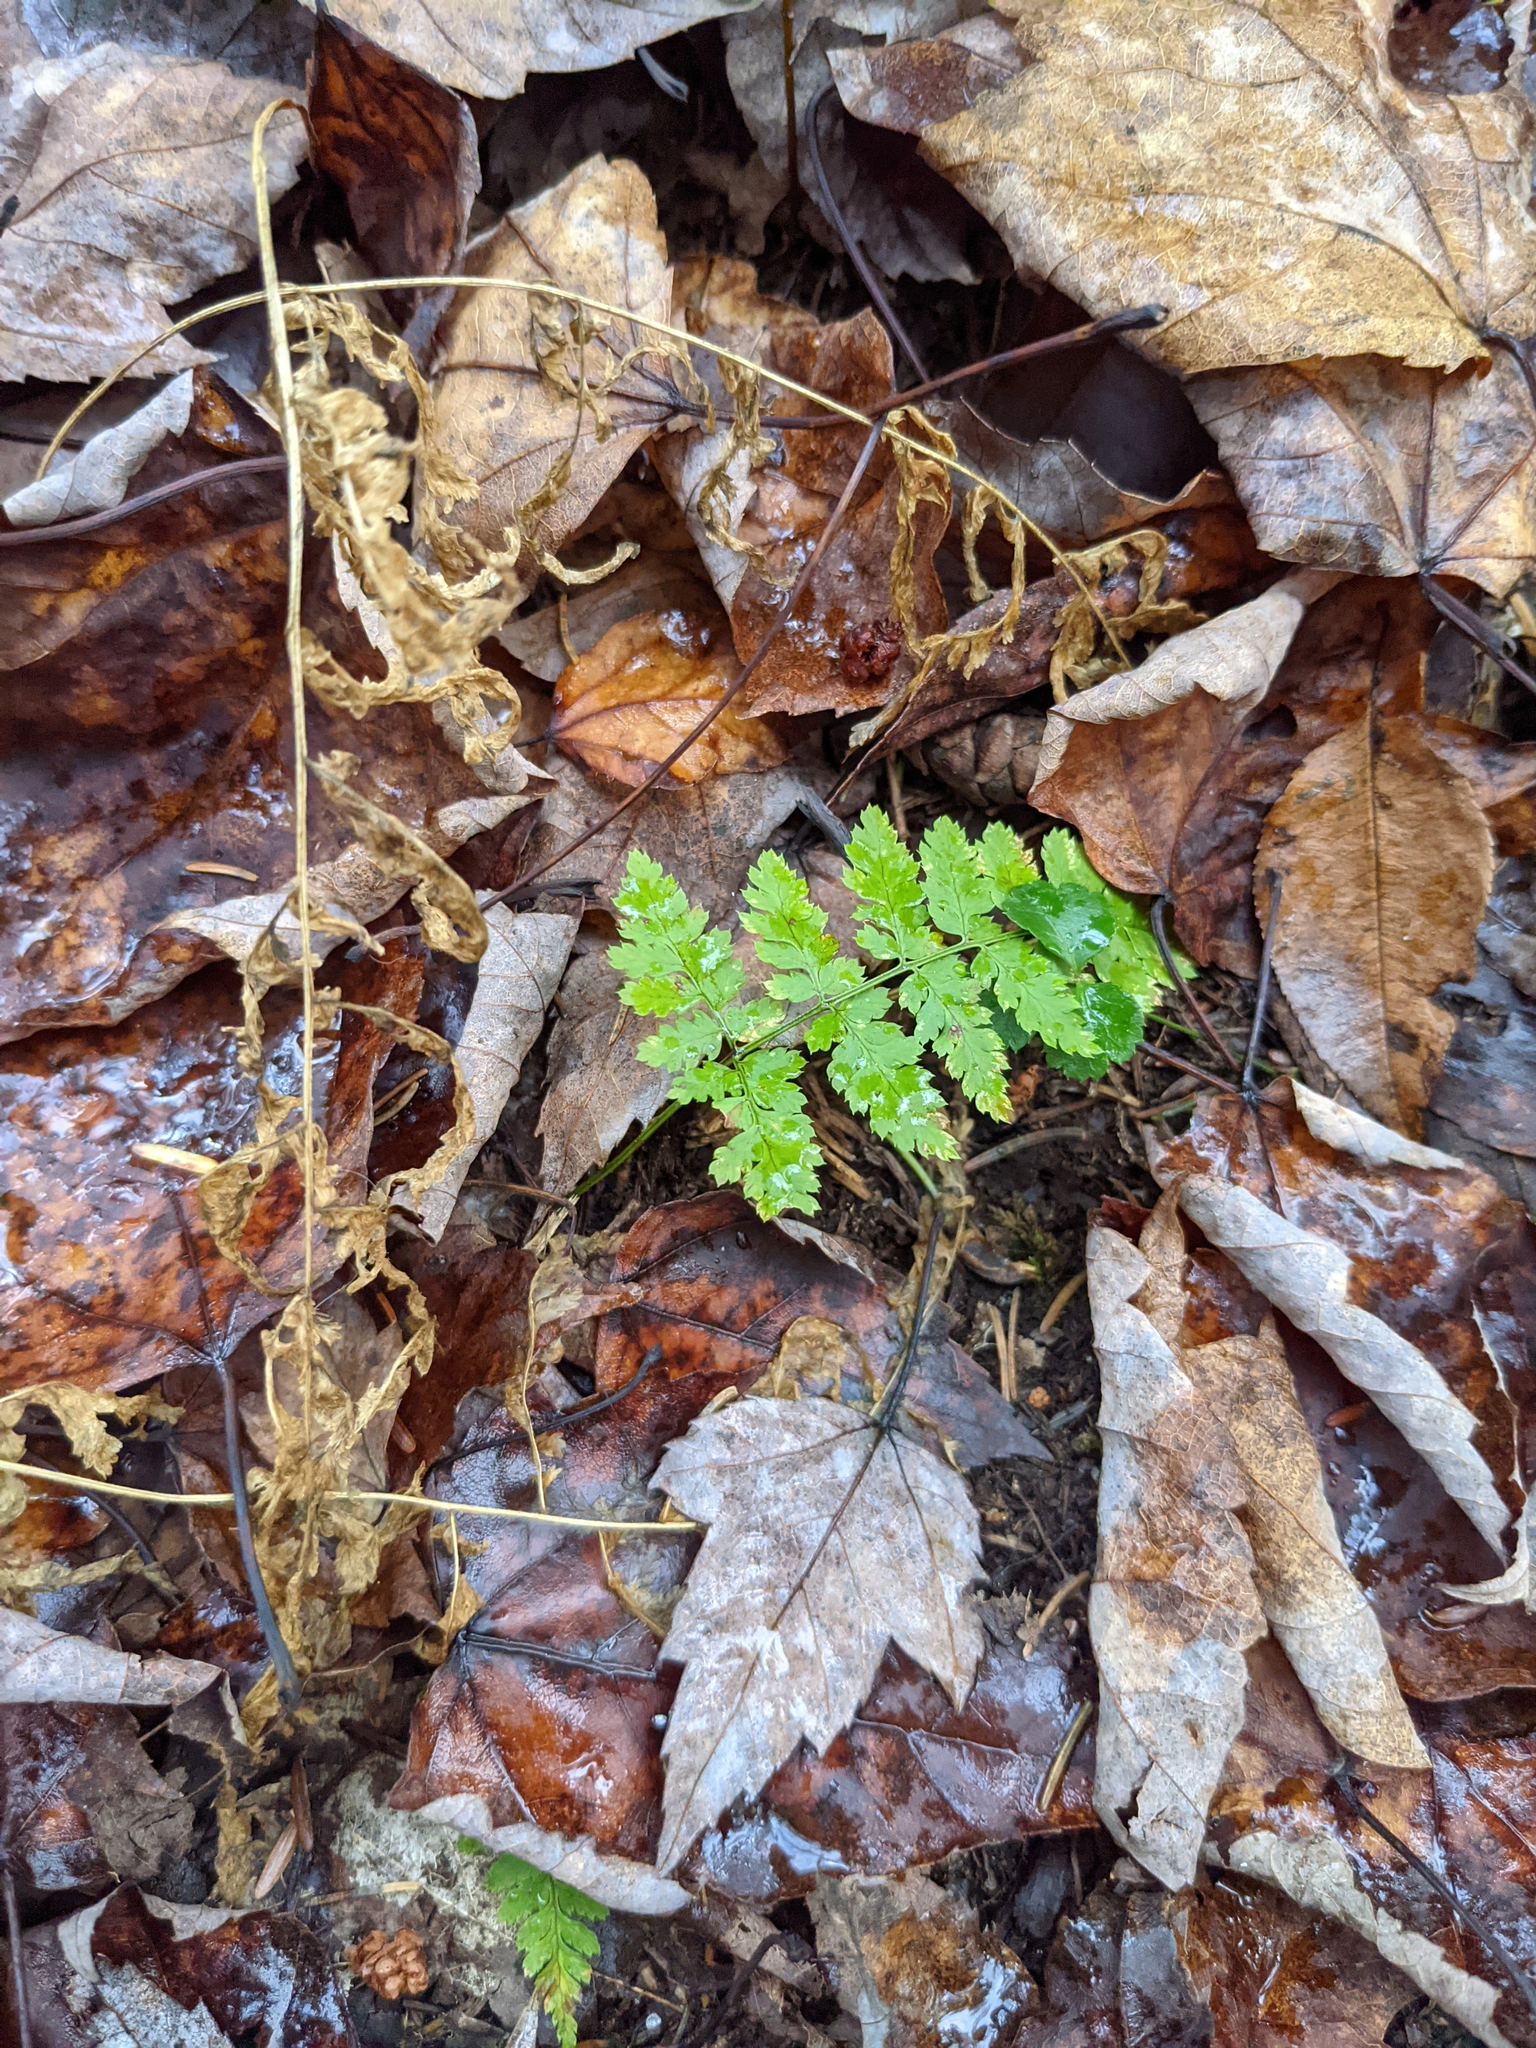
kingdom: Plantae
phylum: Tracheophyta
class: Polypodiopsida
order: Polypodiales
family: Dryopteridaceae
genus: Dryopteris
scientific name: Dryopteris intermedia
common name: Evergreen wood fern
